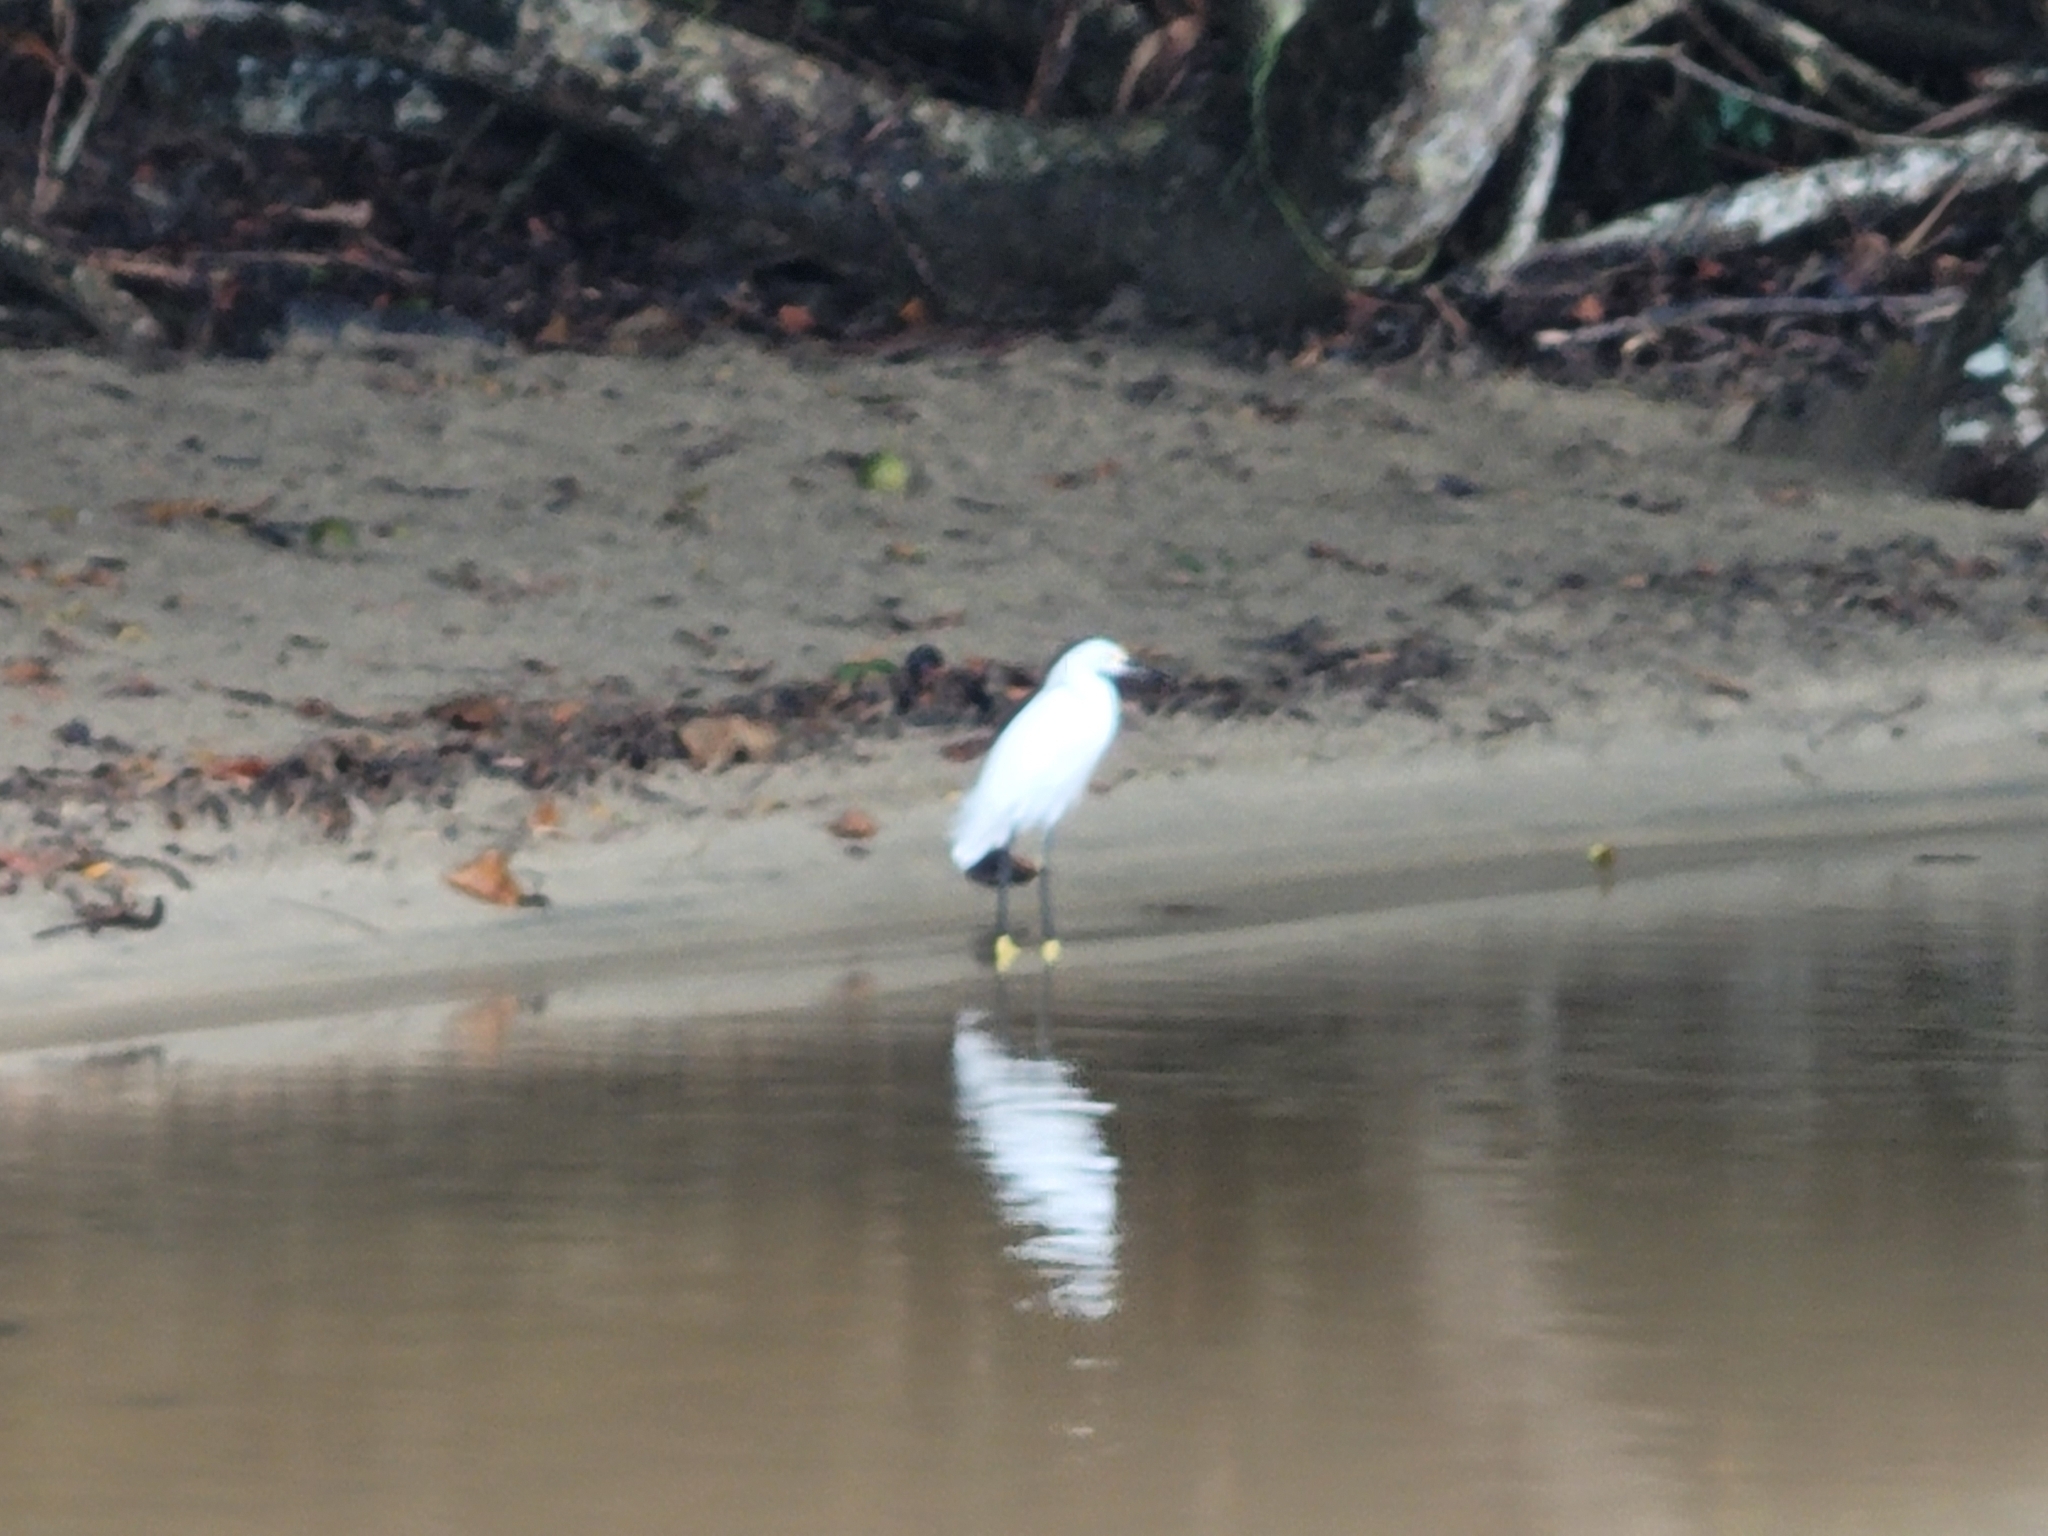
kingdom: Animalia
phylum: Chordata
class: Aves
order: Pelecaniformes
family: Ardeidae
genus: Egretta
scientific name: Egretta thula
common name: Snowy egret
